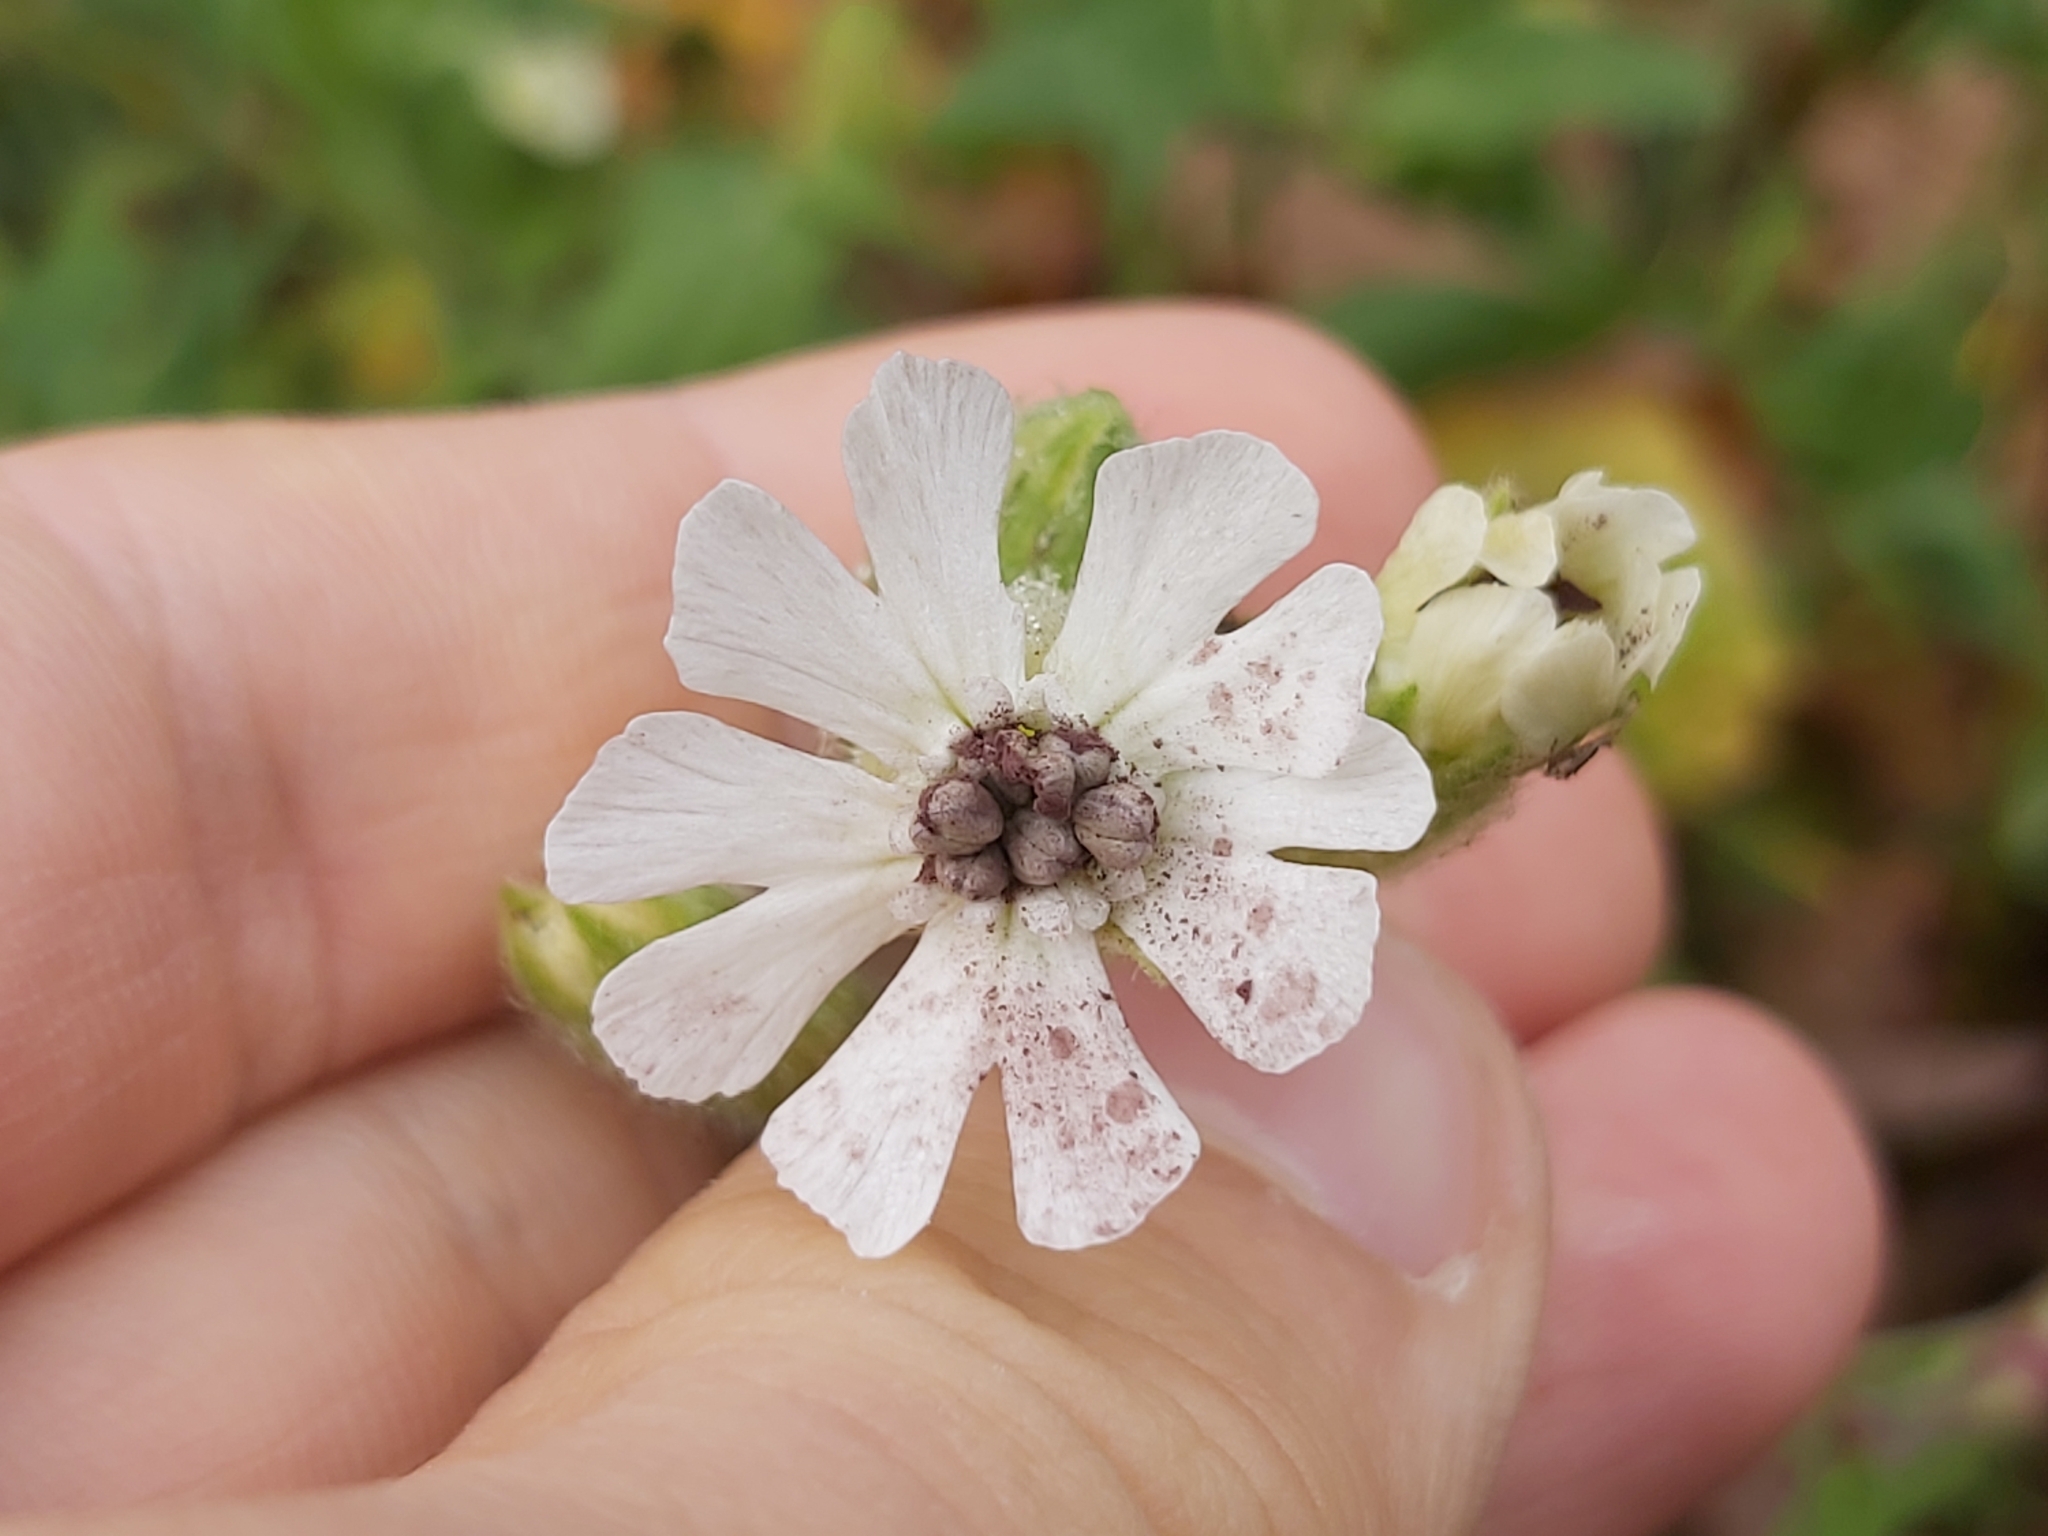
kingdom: Fungi
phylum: Basidiomycota
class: Microbotryomycetes
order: Microbotryales
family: Microbotryaceae
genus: Microbotryum
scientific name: Microbotryum lychnidis-dioicae
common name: Campion anther smut
